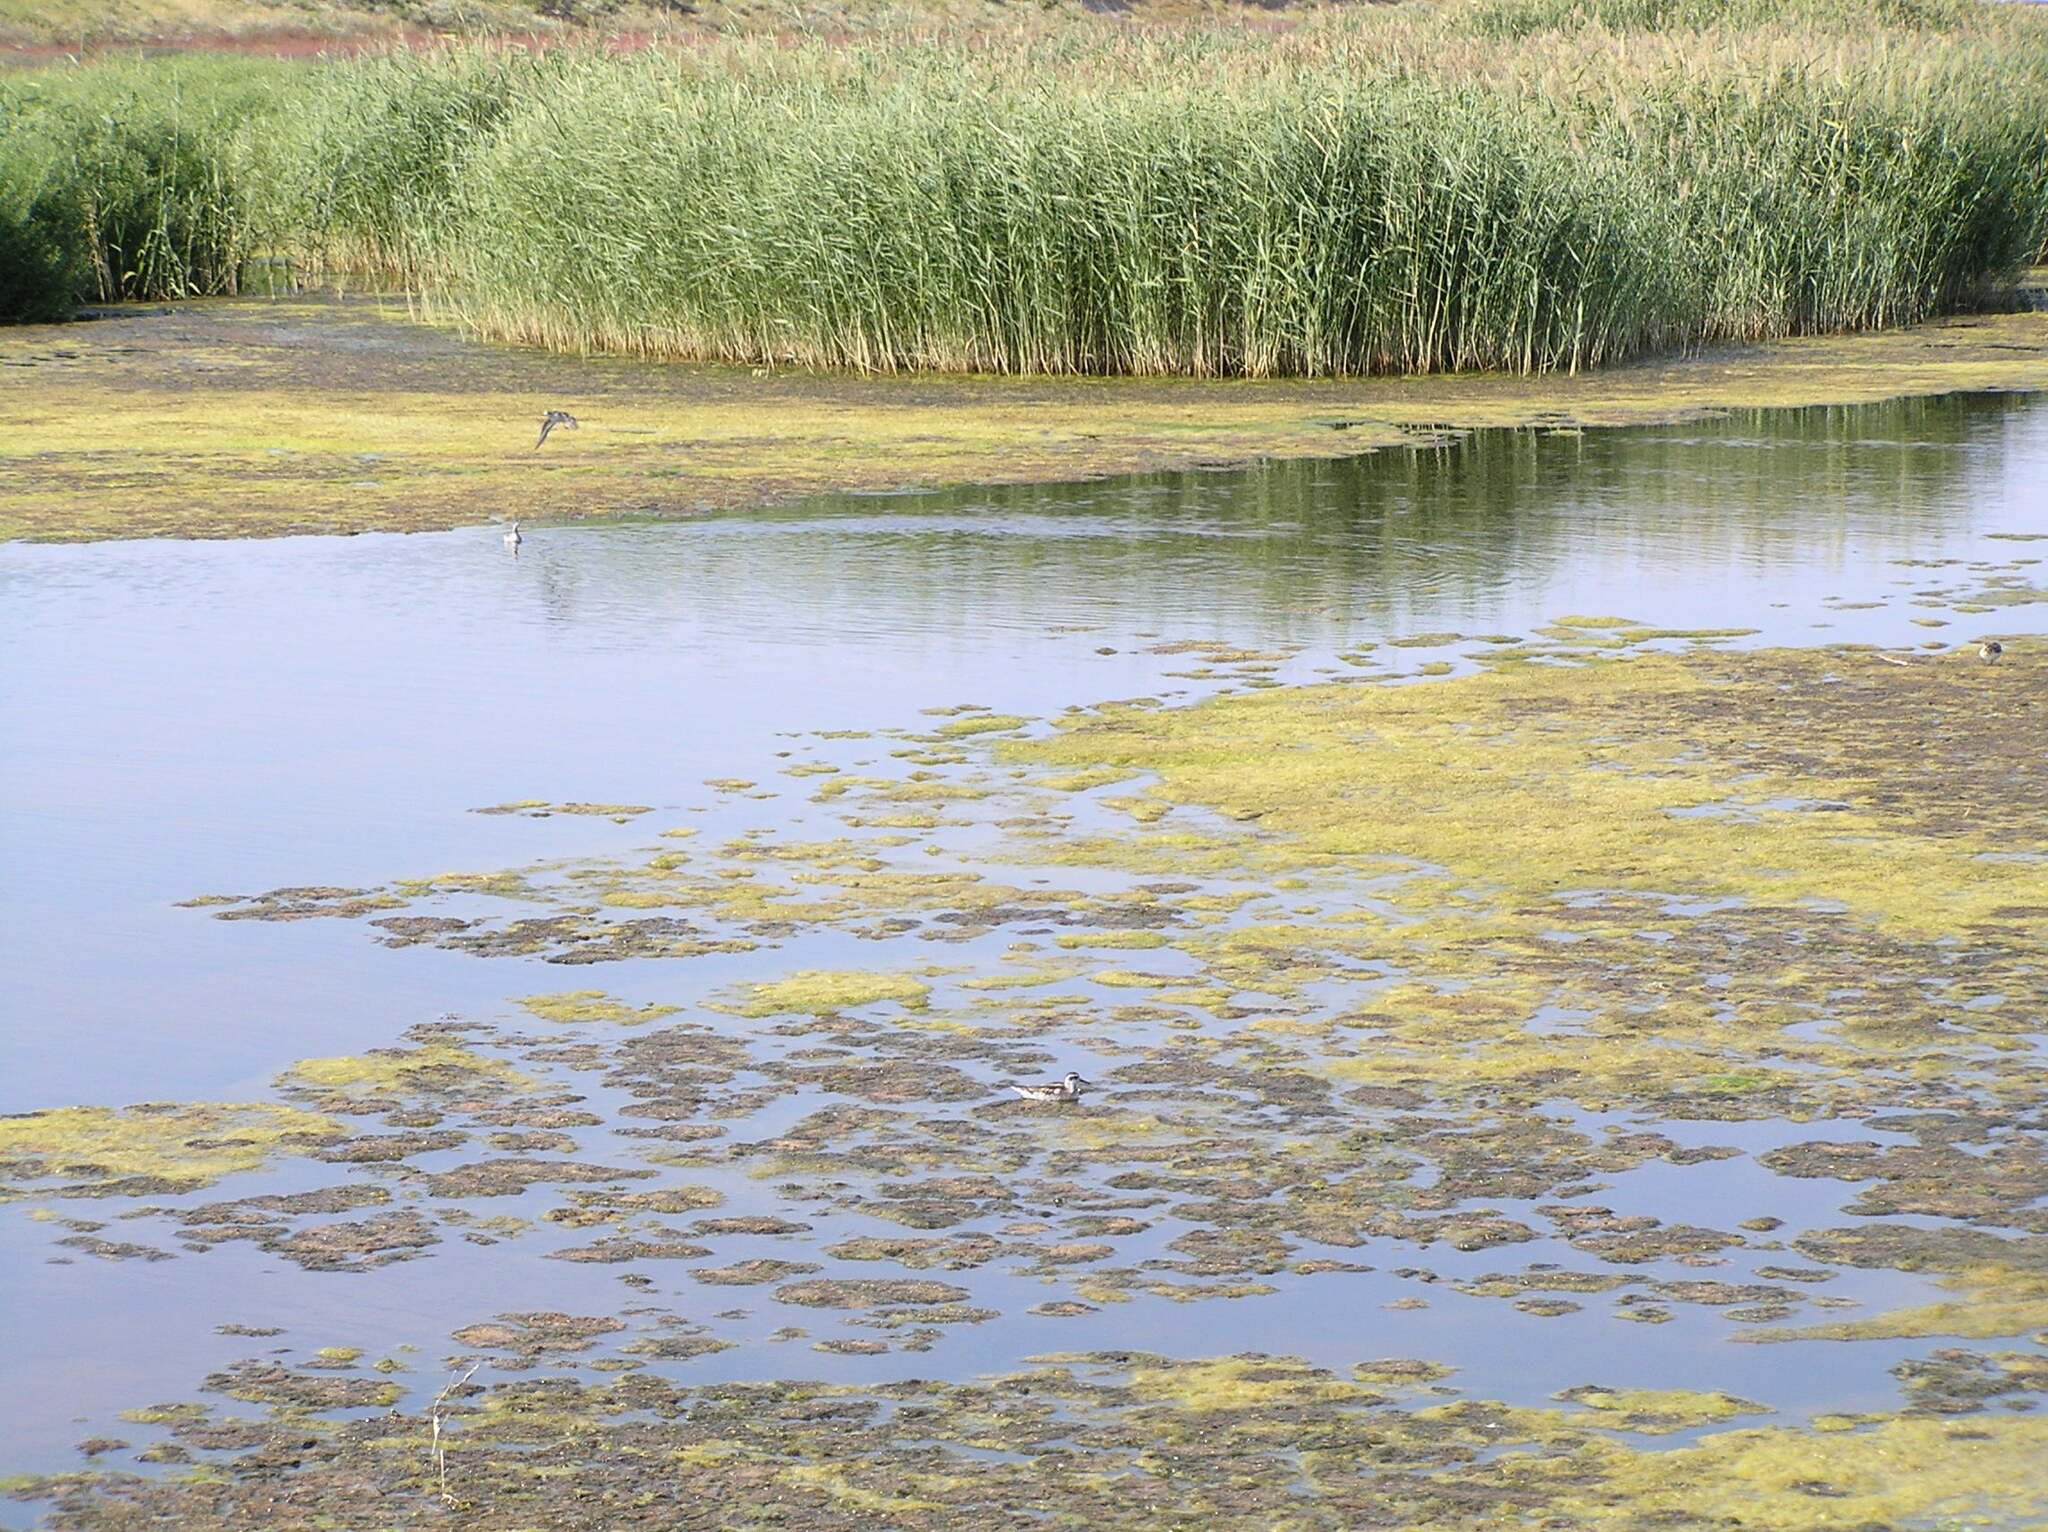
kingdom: Plantae
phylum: Tracheophyta
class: Liliopsida
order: Poales
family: Poaceae
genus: Phragmites
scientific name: Phragmites australis
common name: Common reed
